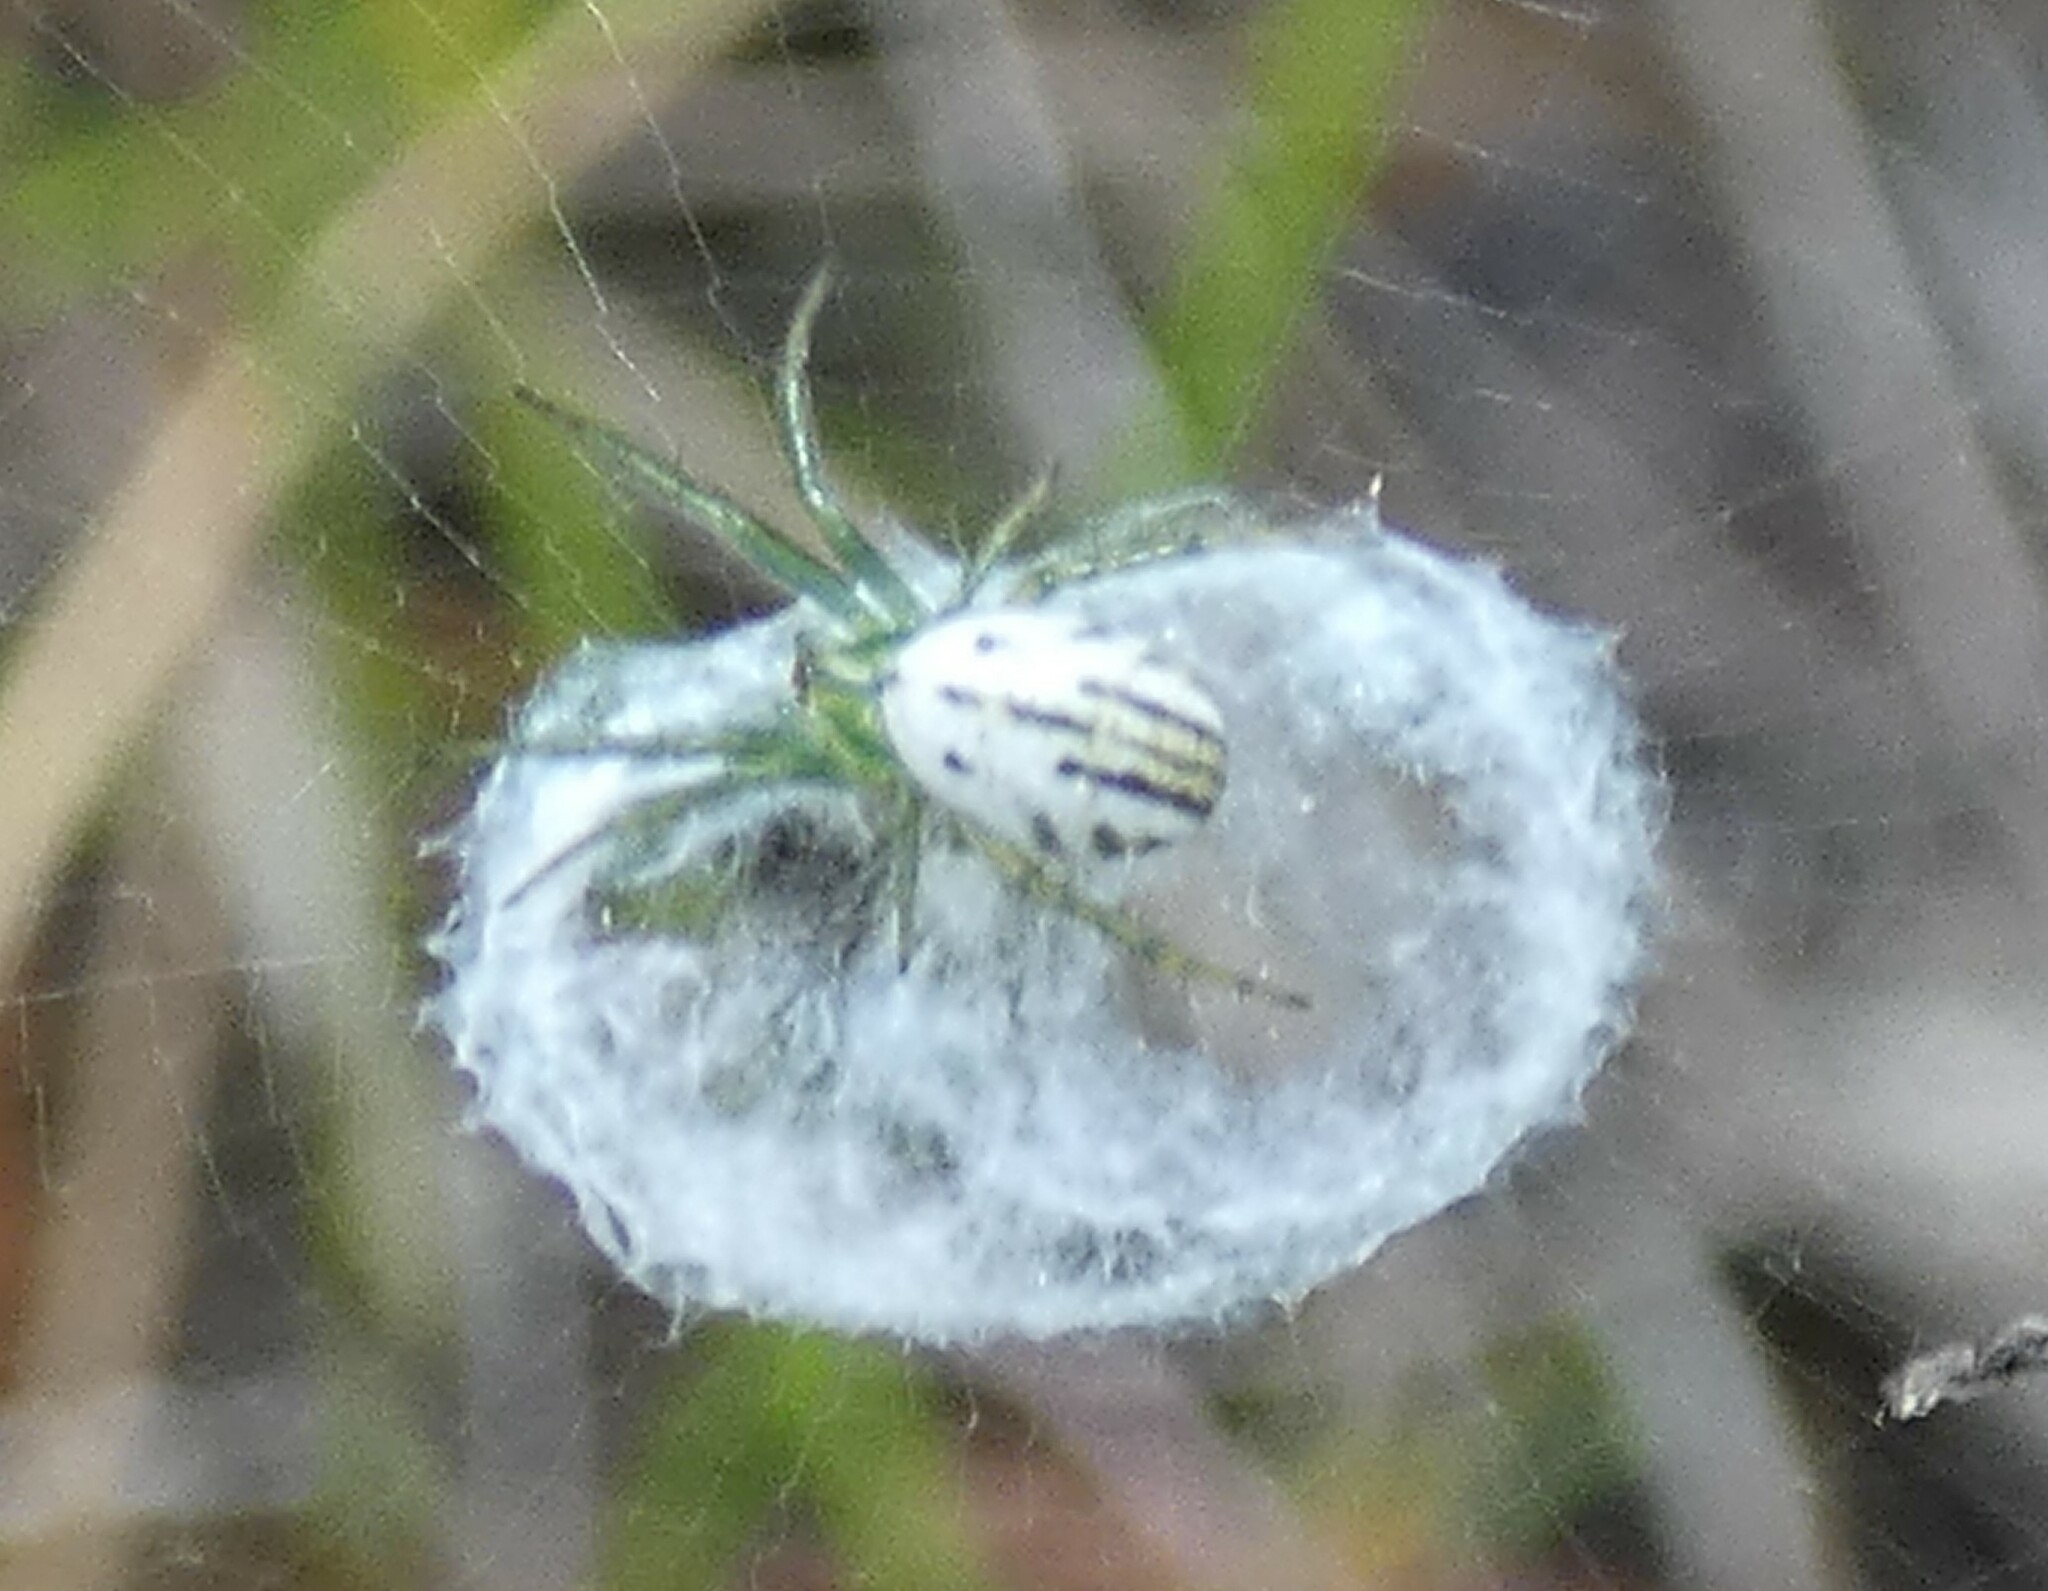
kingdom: Animalia
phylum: Arthropoda
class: Arachnida
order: Araneae
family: Araneidae
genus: Mangora
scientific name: Mangora gibberosa
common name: Lined orbweaver
